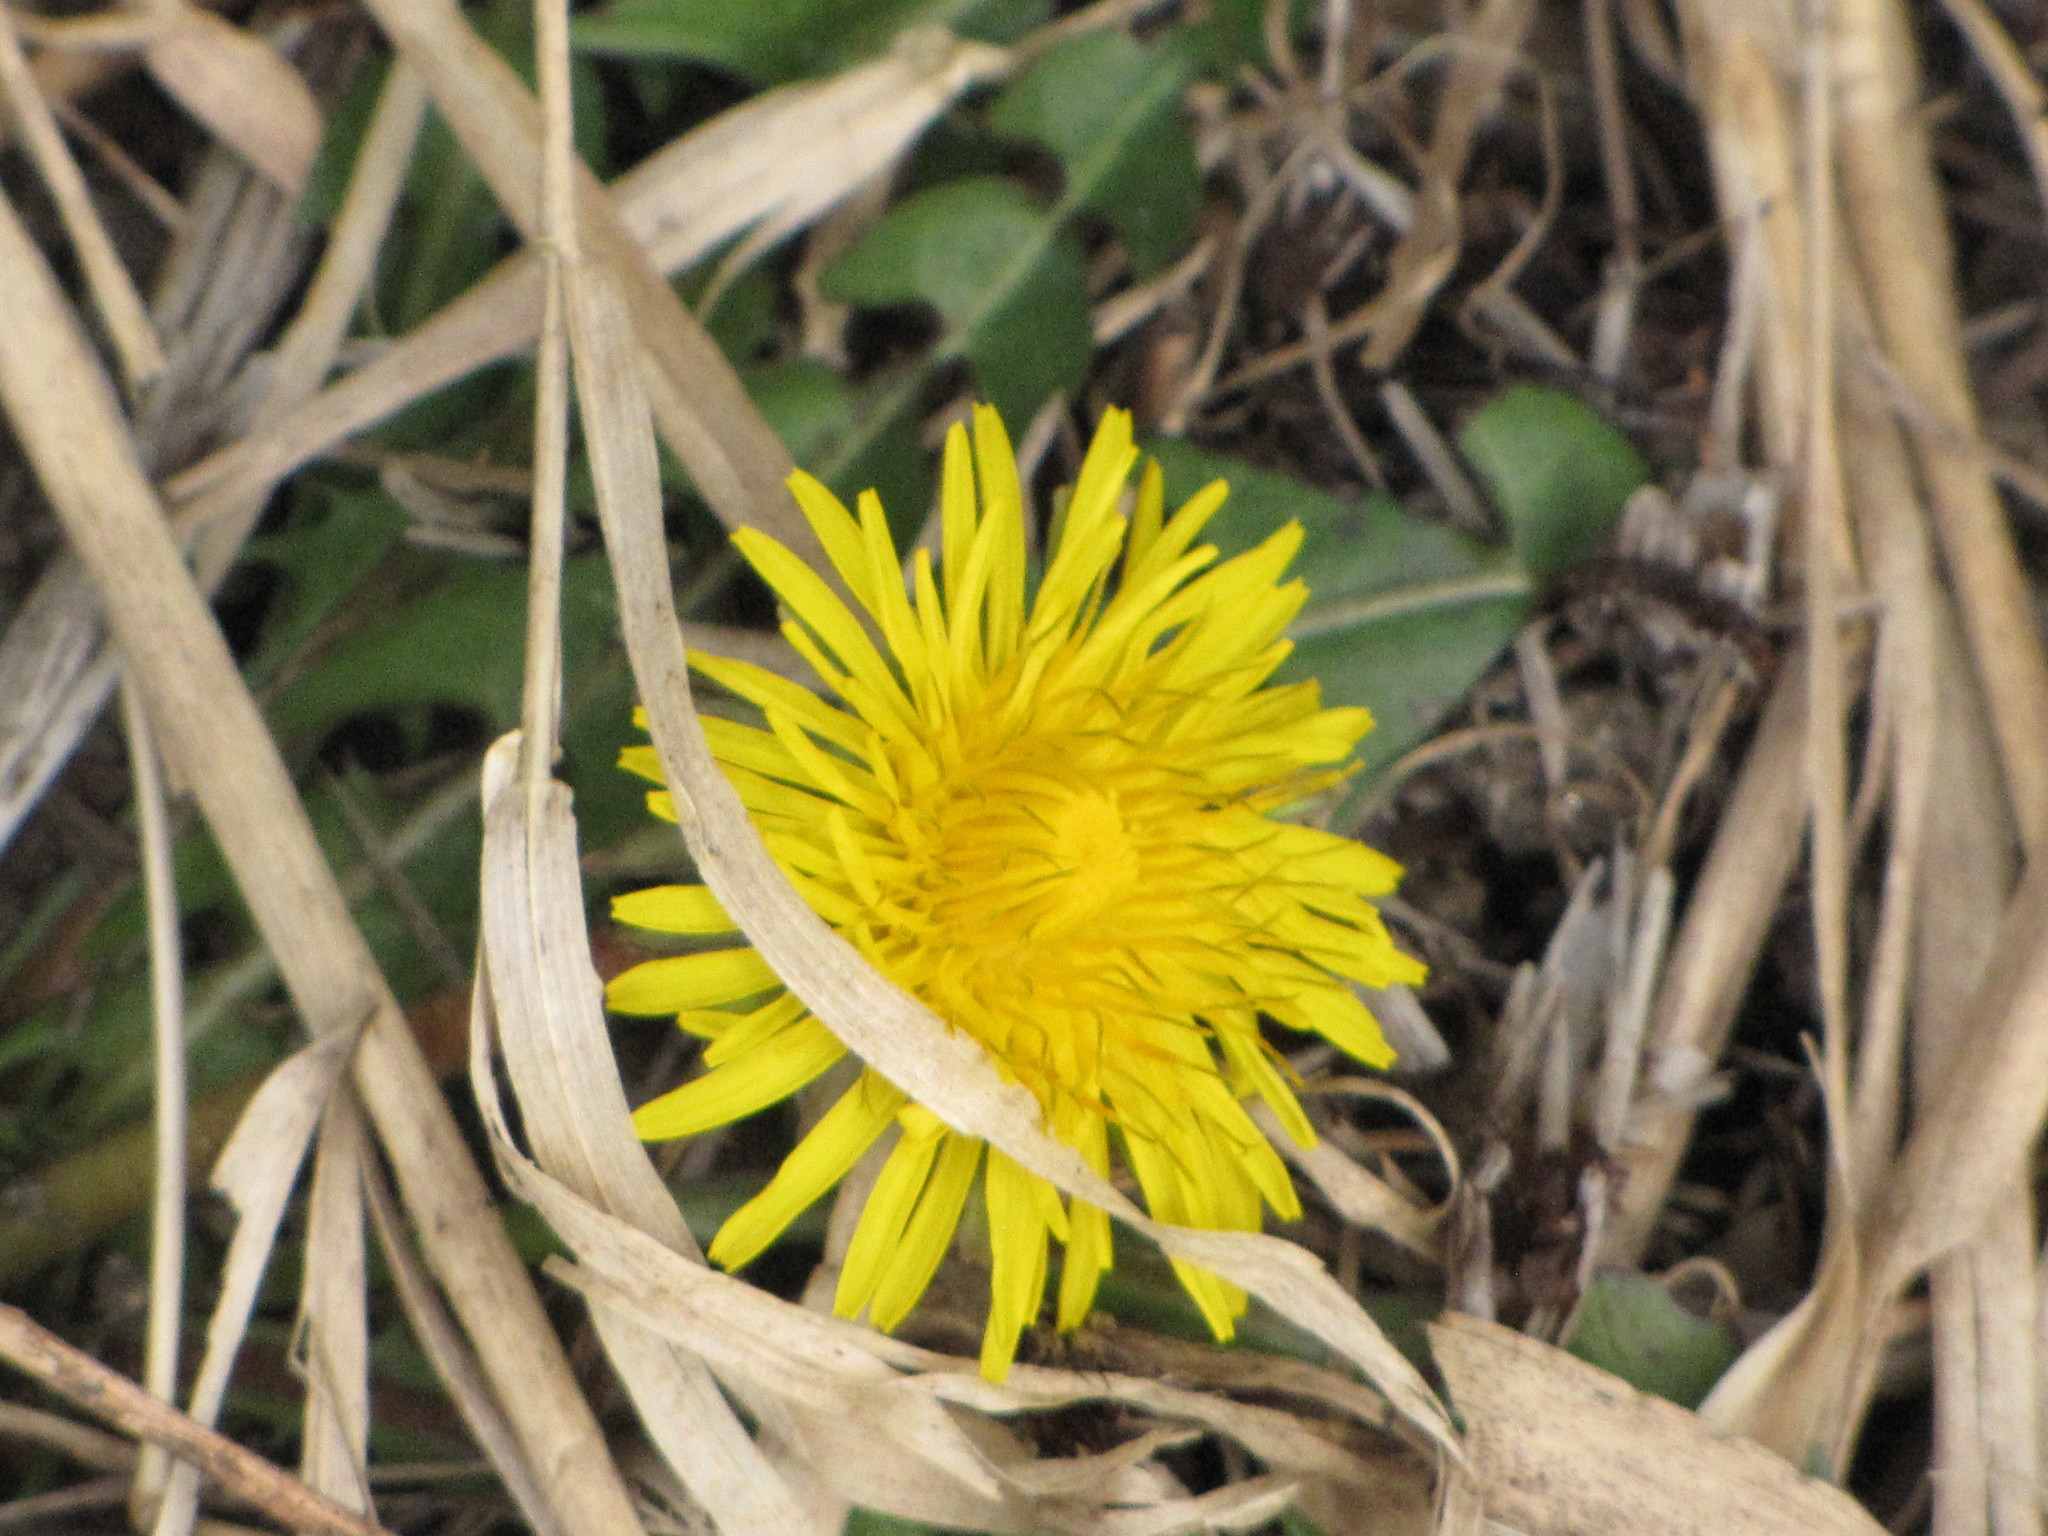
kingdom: Plantae
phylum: Tracheophyta
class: Magnoliopsida
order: Asterales
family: Asteraceae
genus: Taraxacum
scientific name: Taraxacum officinale
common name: Common dandelion
